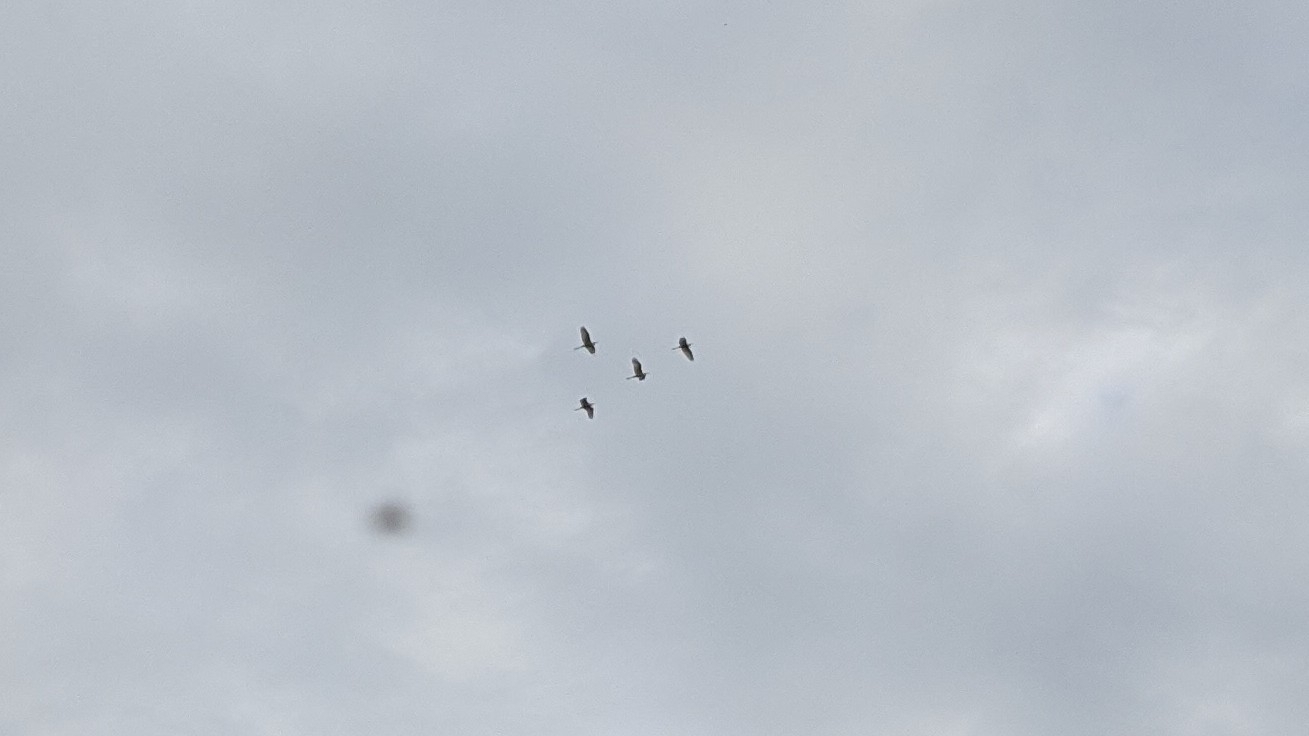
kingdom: Animalia
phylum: Chordata
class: Aves
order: Pelecaniformes
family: Ardeidae
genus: Ardea
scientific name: Ardea alba
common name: Great egret
